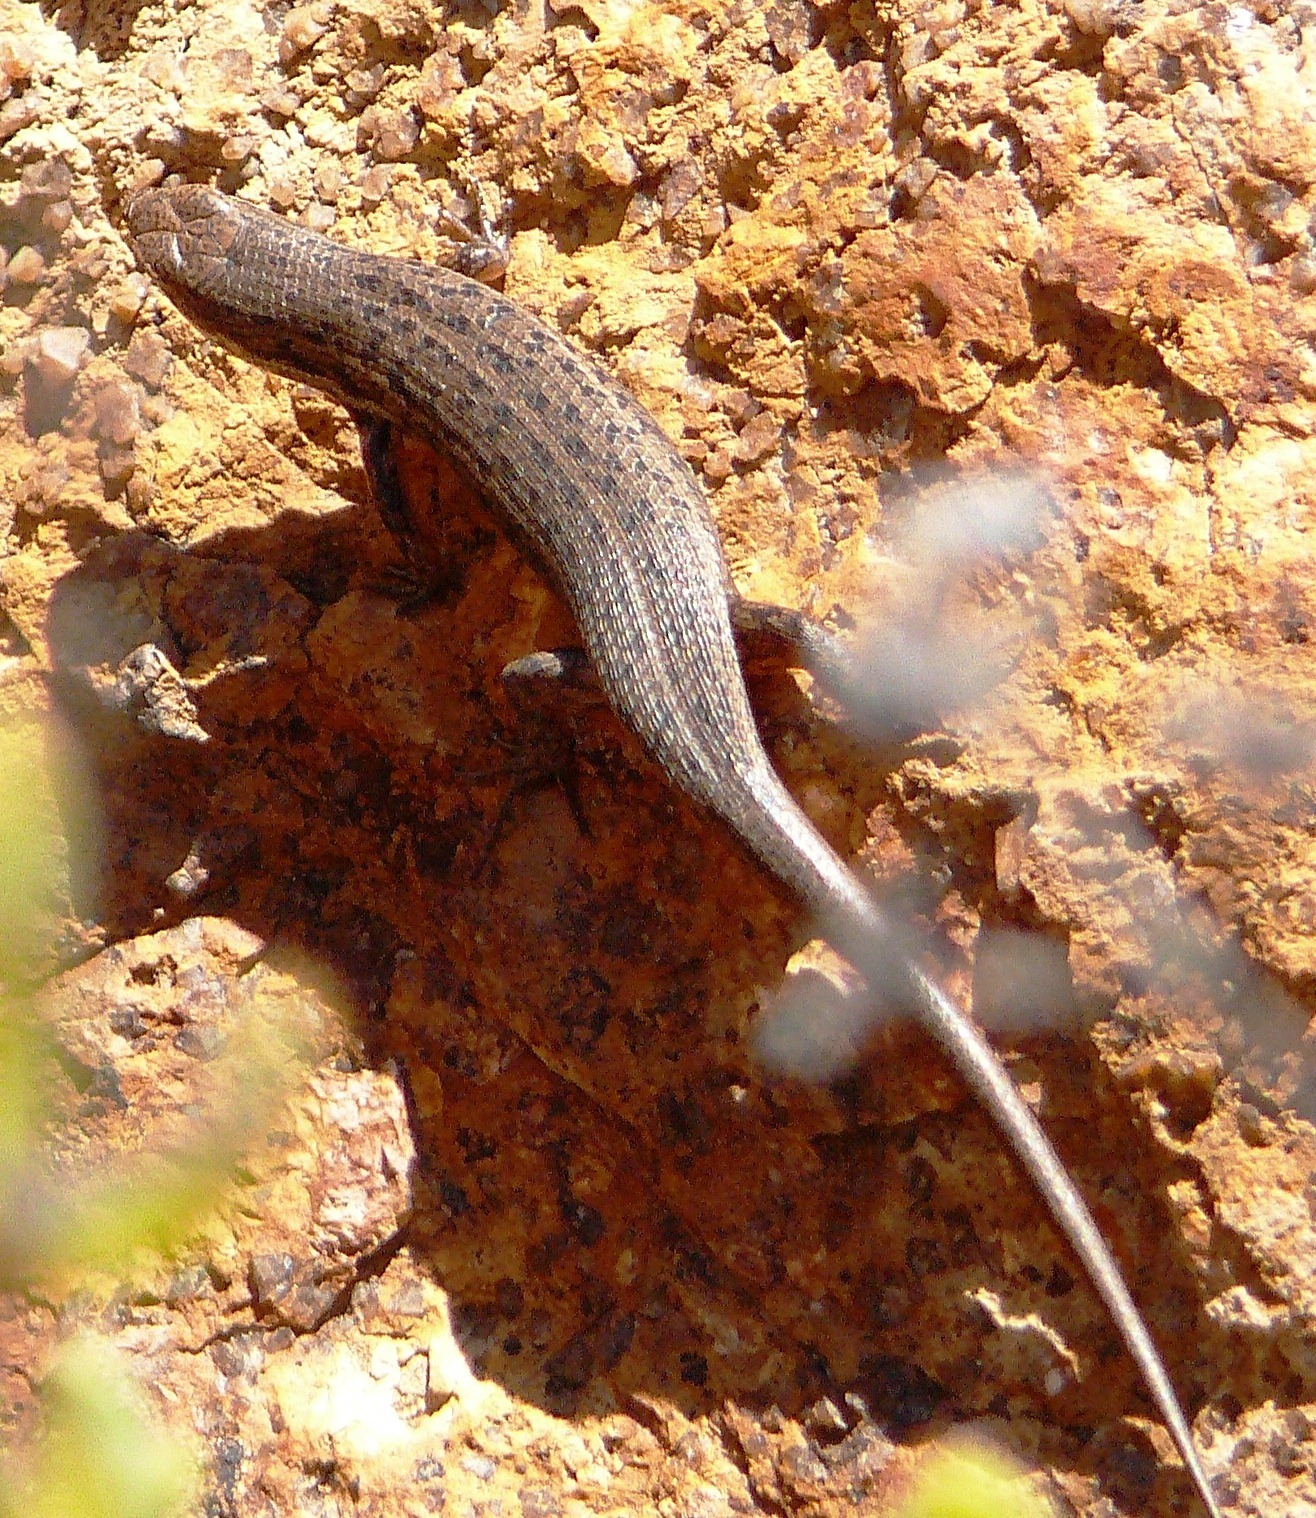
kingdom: Animalia
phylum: Chordata
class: Squamata
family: Scincidae
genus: Trachylepis
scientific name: Trachylepis variegata
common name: Variegated skink
